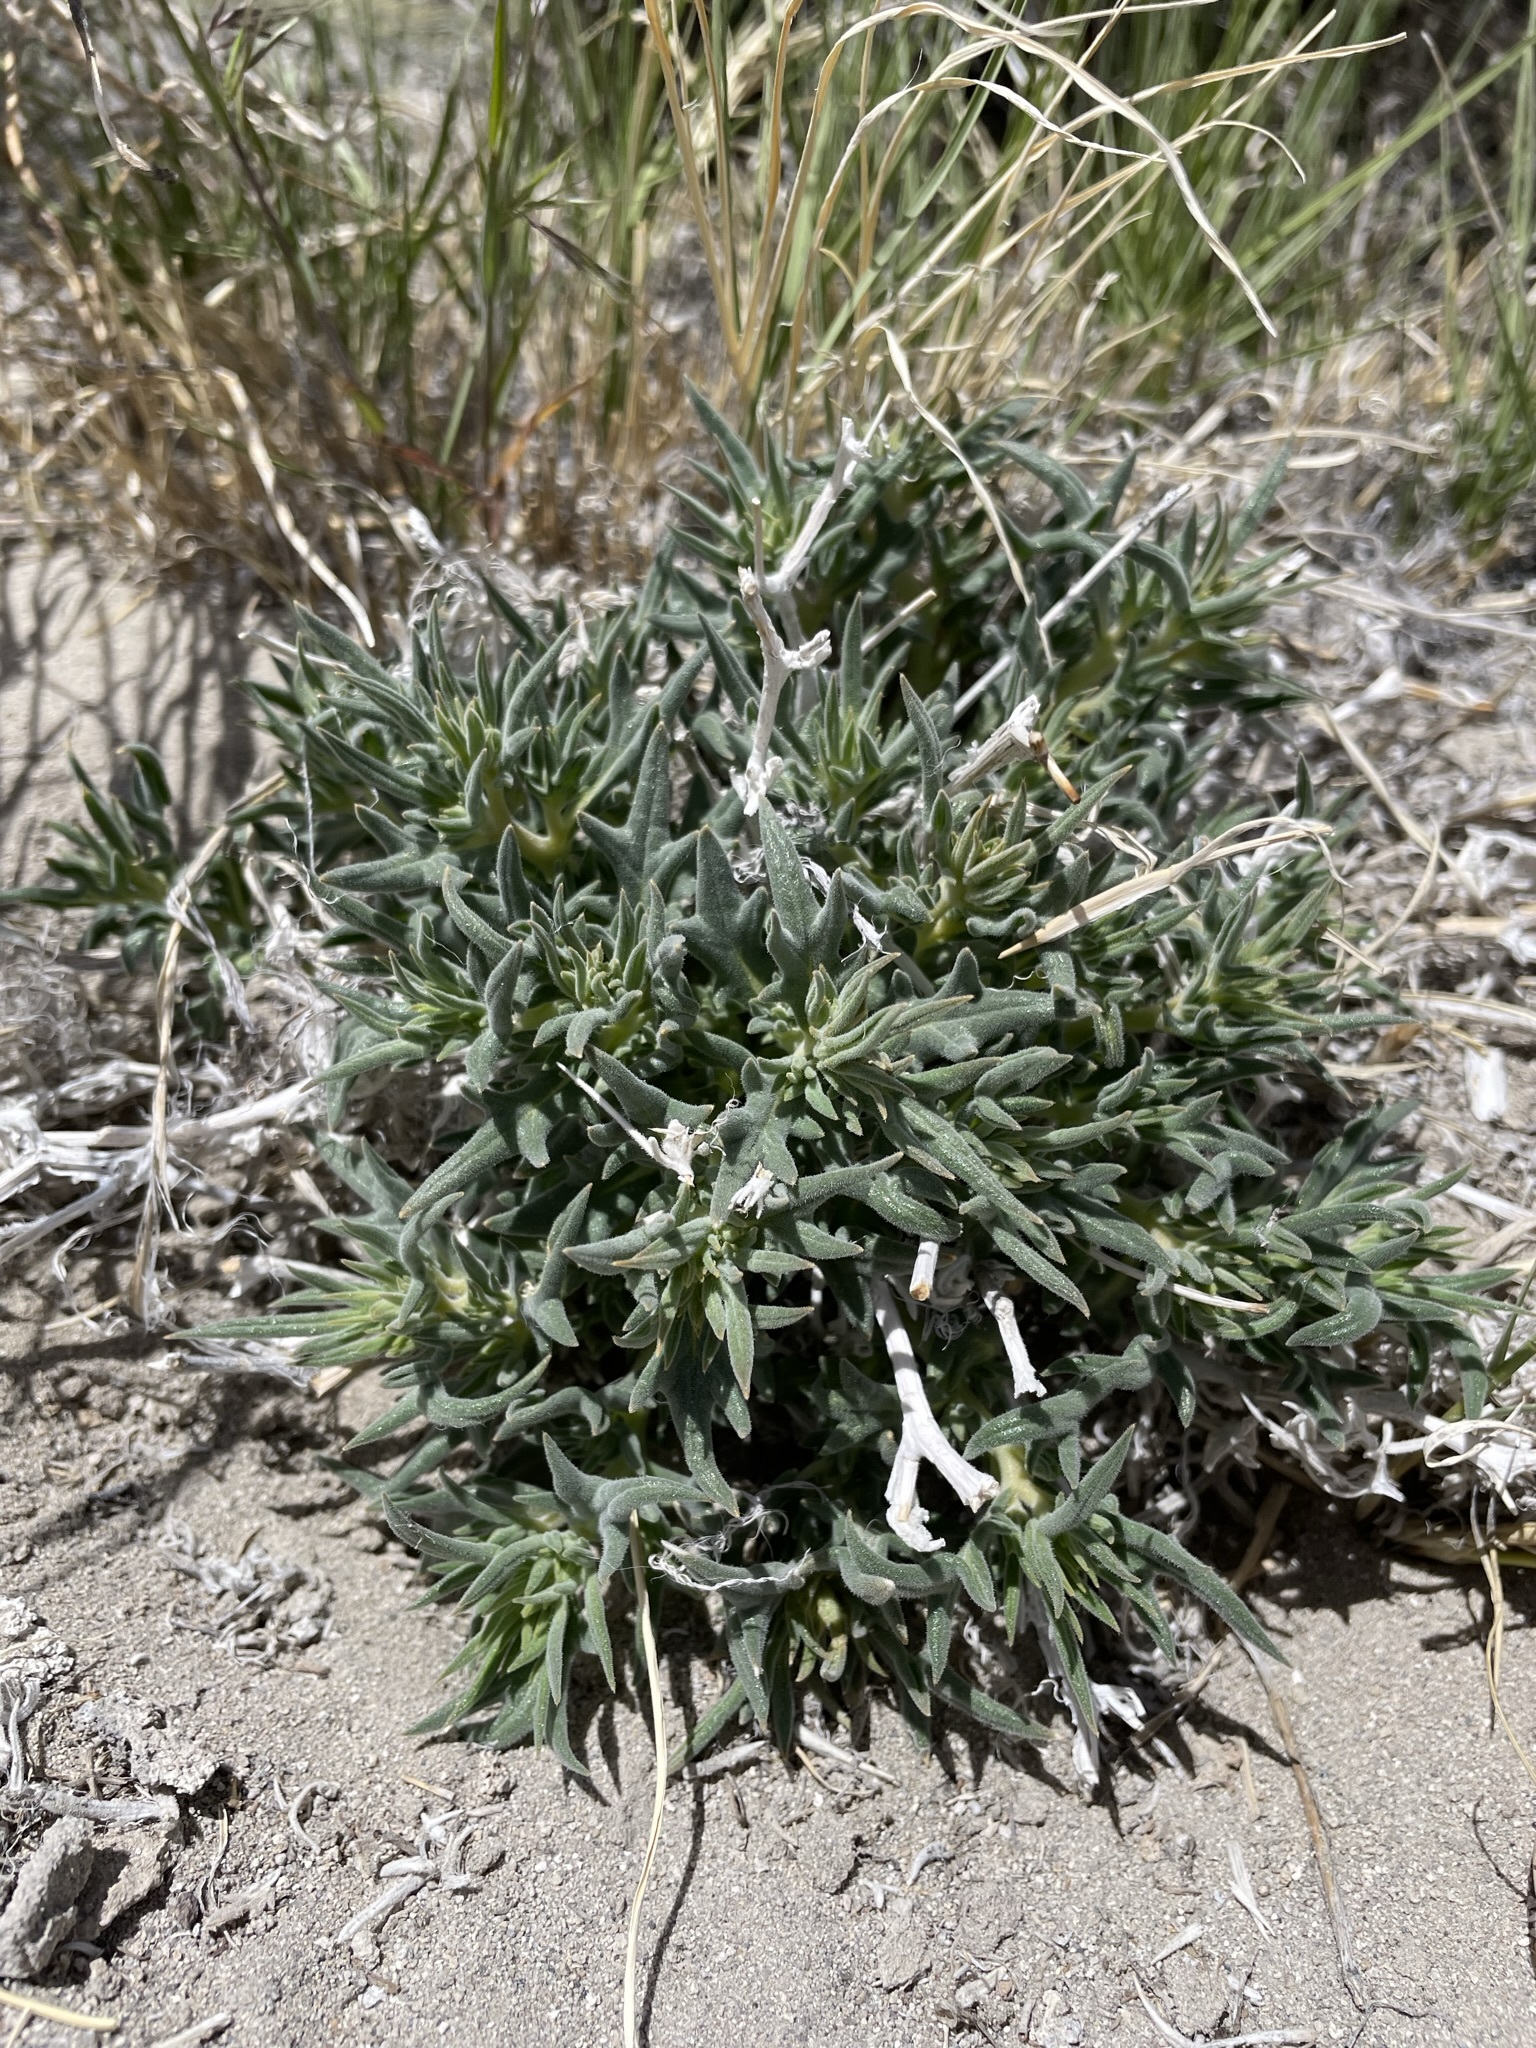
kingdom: Plantae
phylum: Tracheophyta
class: Magnoliopsida
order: Cornales
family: Loasaceae
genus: Mentzelia
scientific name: Mentzelia torreyi
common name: Torrey's blazingstar
